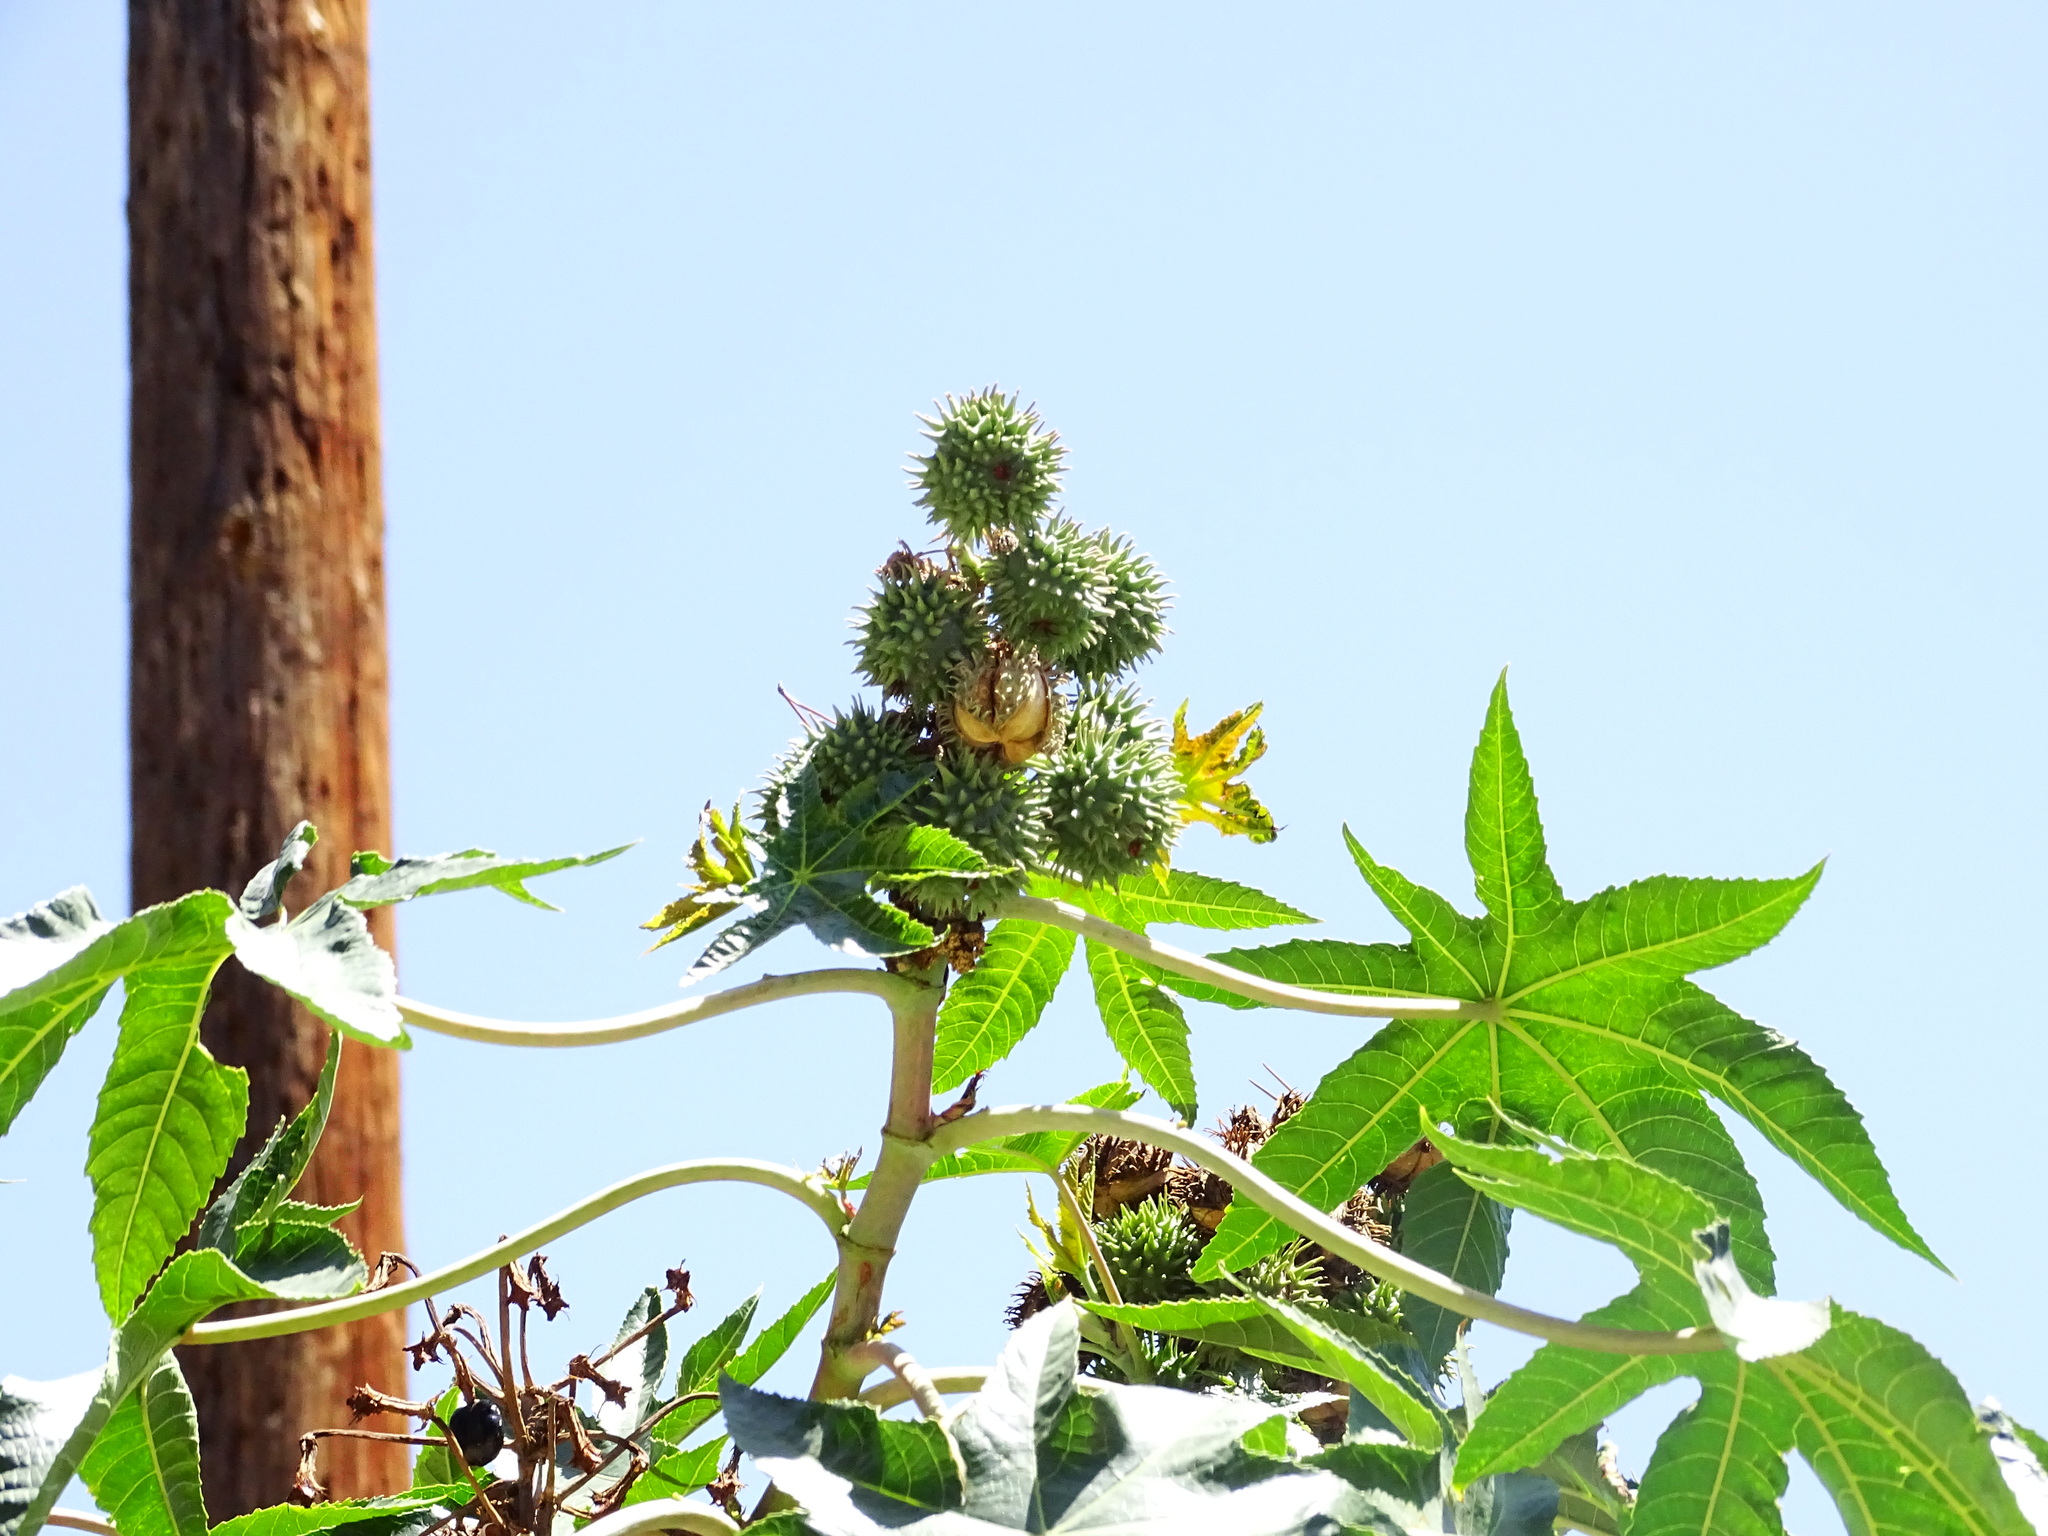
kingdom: Plantae
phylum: Tracheophyta
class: Magnoliopsida
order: Malpighiales
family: Euphorbiaceae
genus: Ricinus
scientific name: Ricinus communis
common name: Castor-oil-plant
